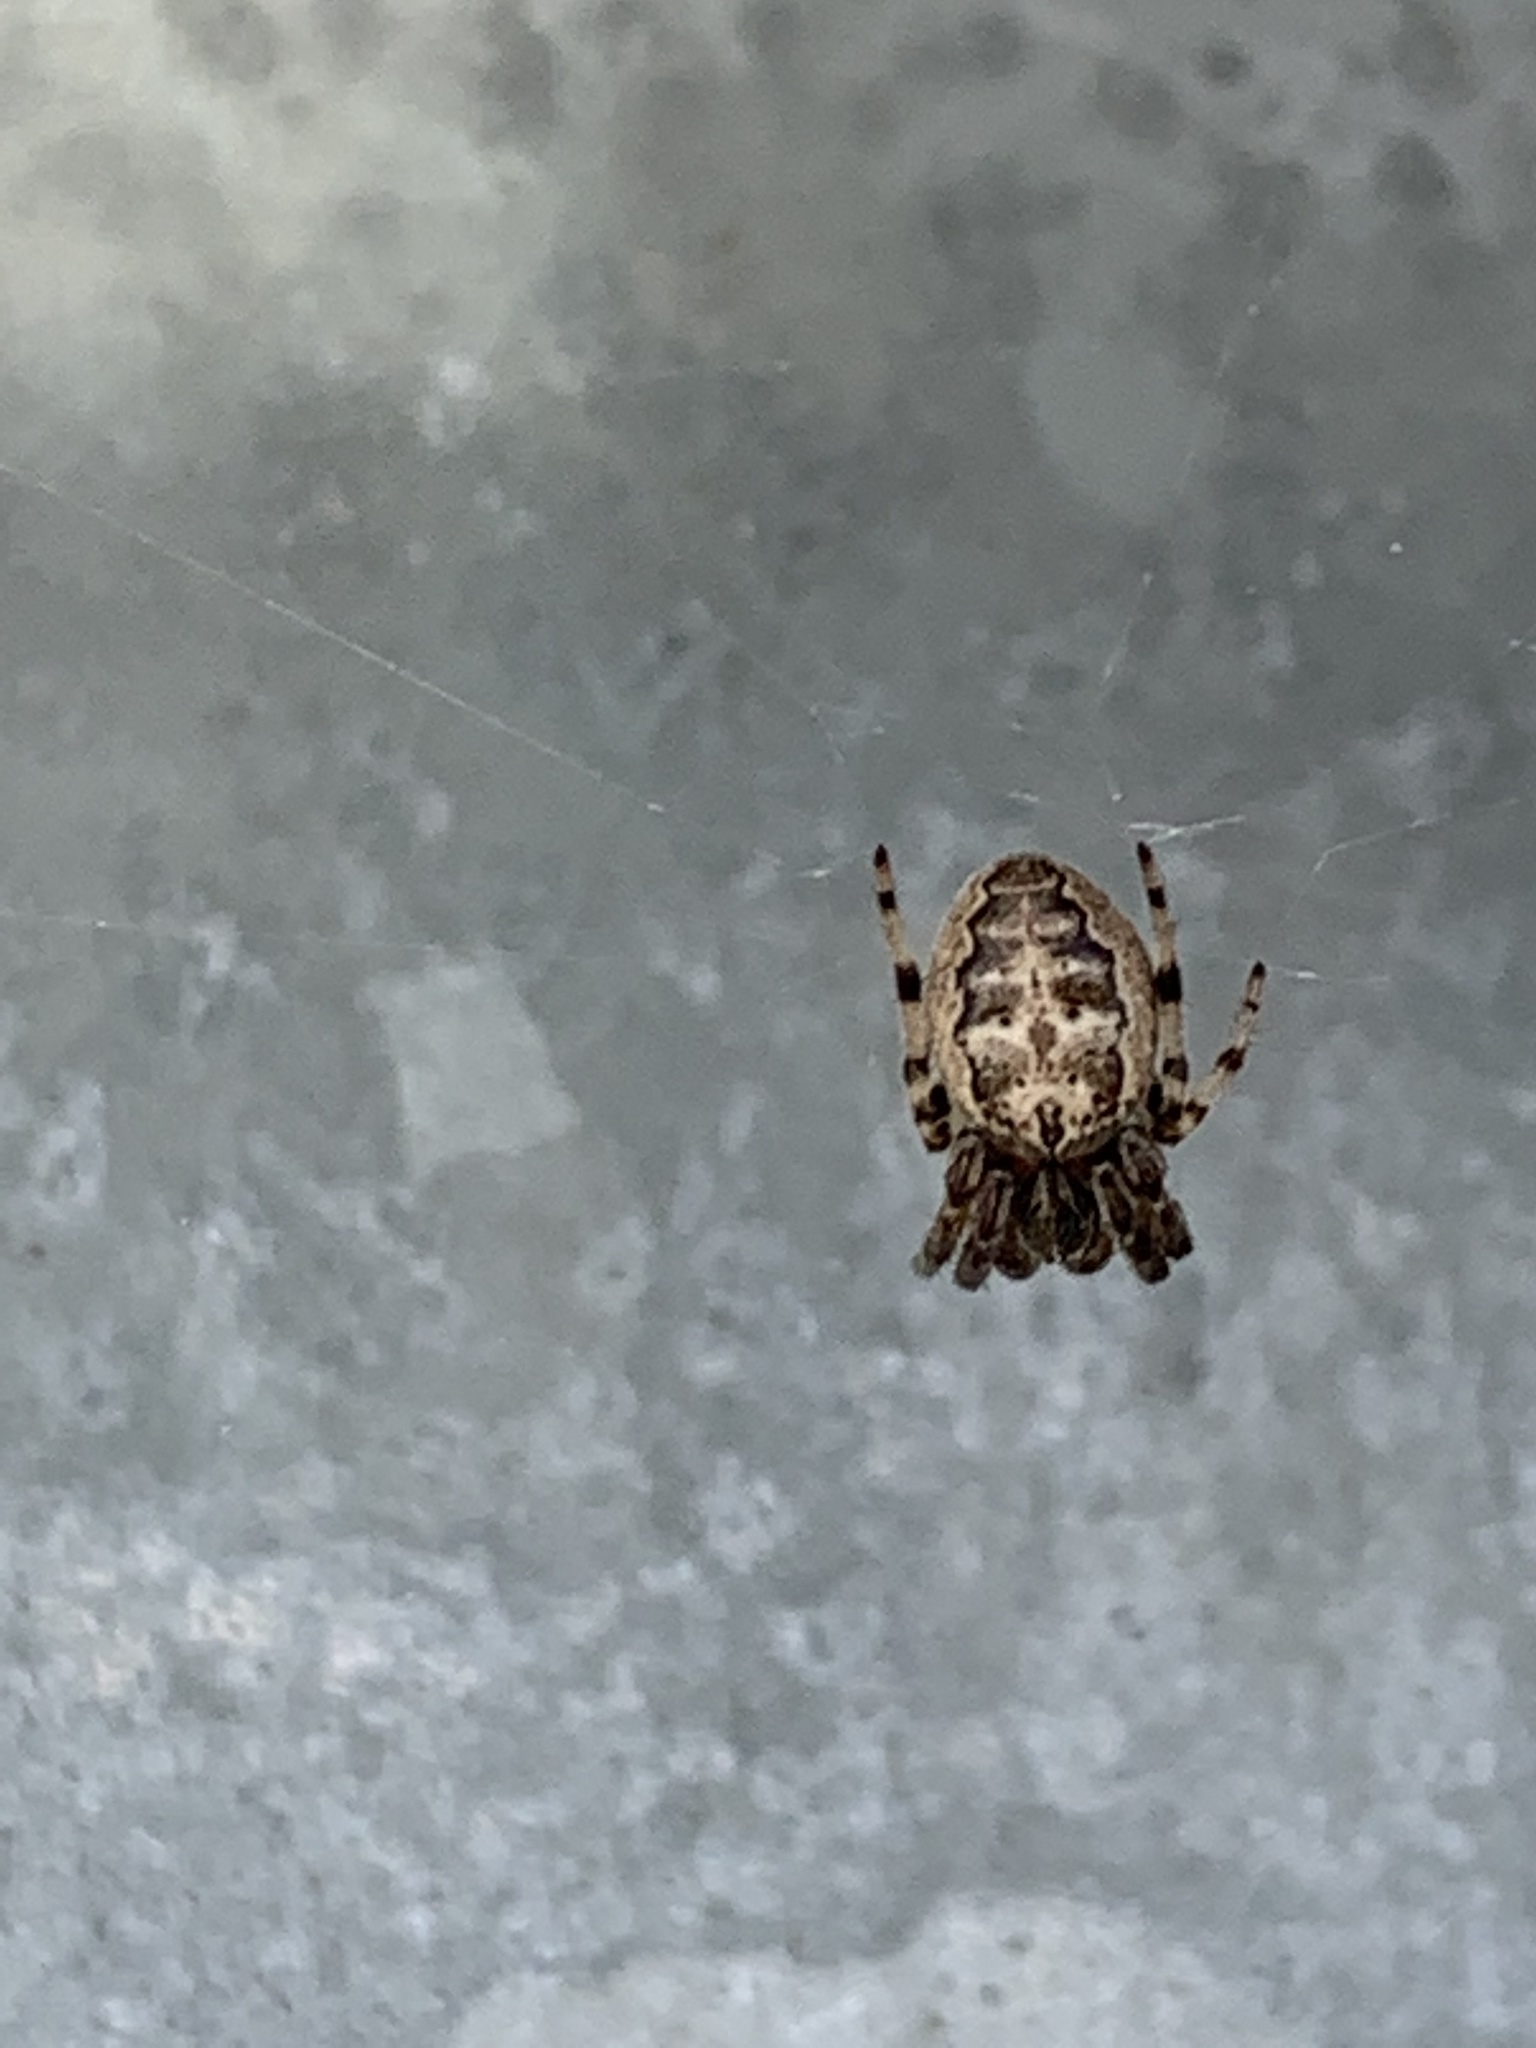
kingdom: Animalia
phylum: Arthropoda
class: Arachnida
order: Araneae
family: Araneidae
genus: Larinioides
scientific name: Larinioides cornutus
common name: Furrow orbweaver
